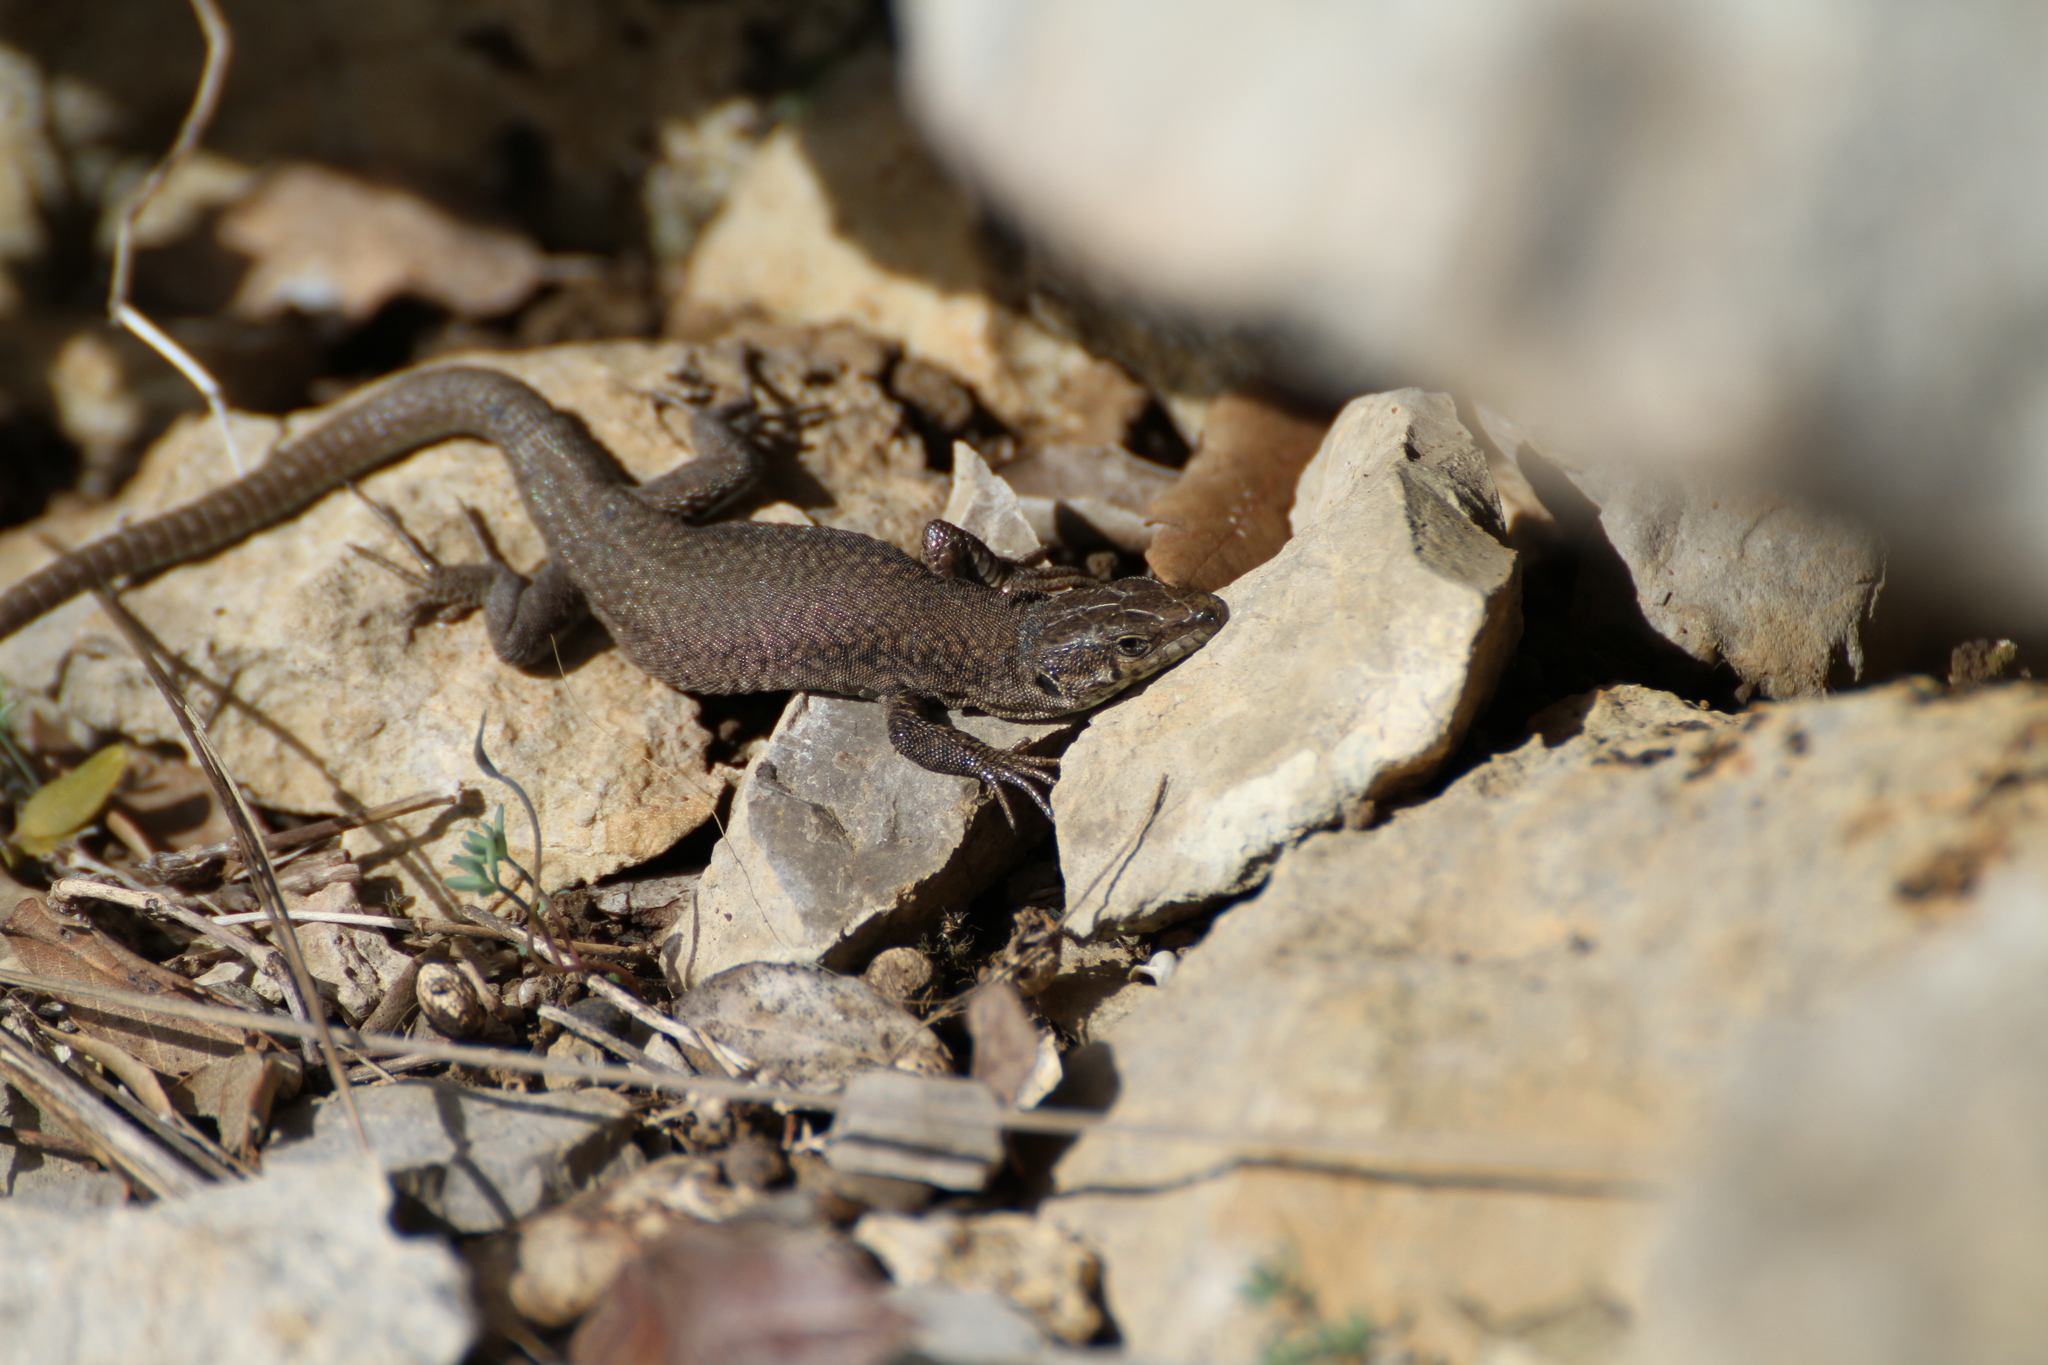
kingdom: Animalia
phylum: Chordata
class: Squamata
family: Lacertidae
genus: Podarcis
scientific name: Podarcis liolepis
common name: Catalonian wall lizard
